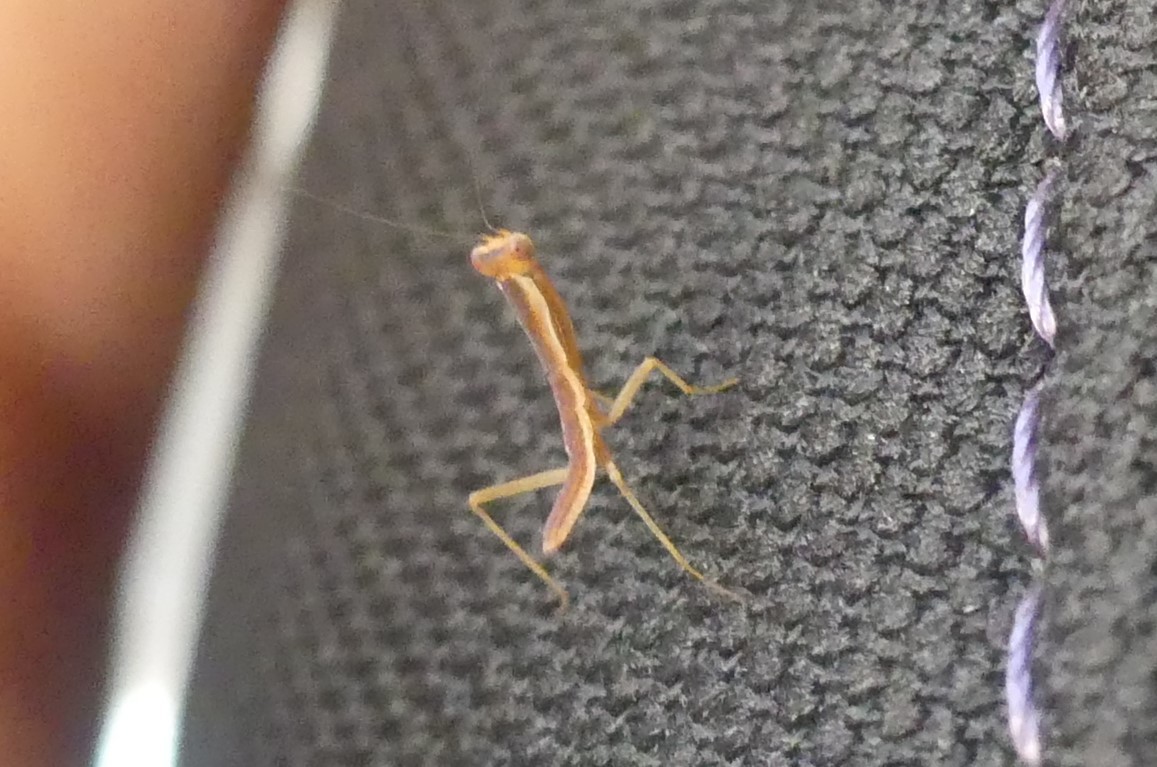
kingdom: Animalia
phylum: Arthropoda
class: Insecta
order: Mantodea
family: Mantidae
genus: Orthodera
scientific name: Orthodera ministralis
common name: Mantis
